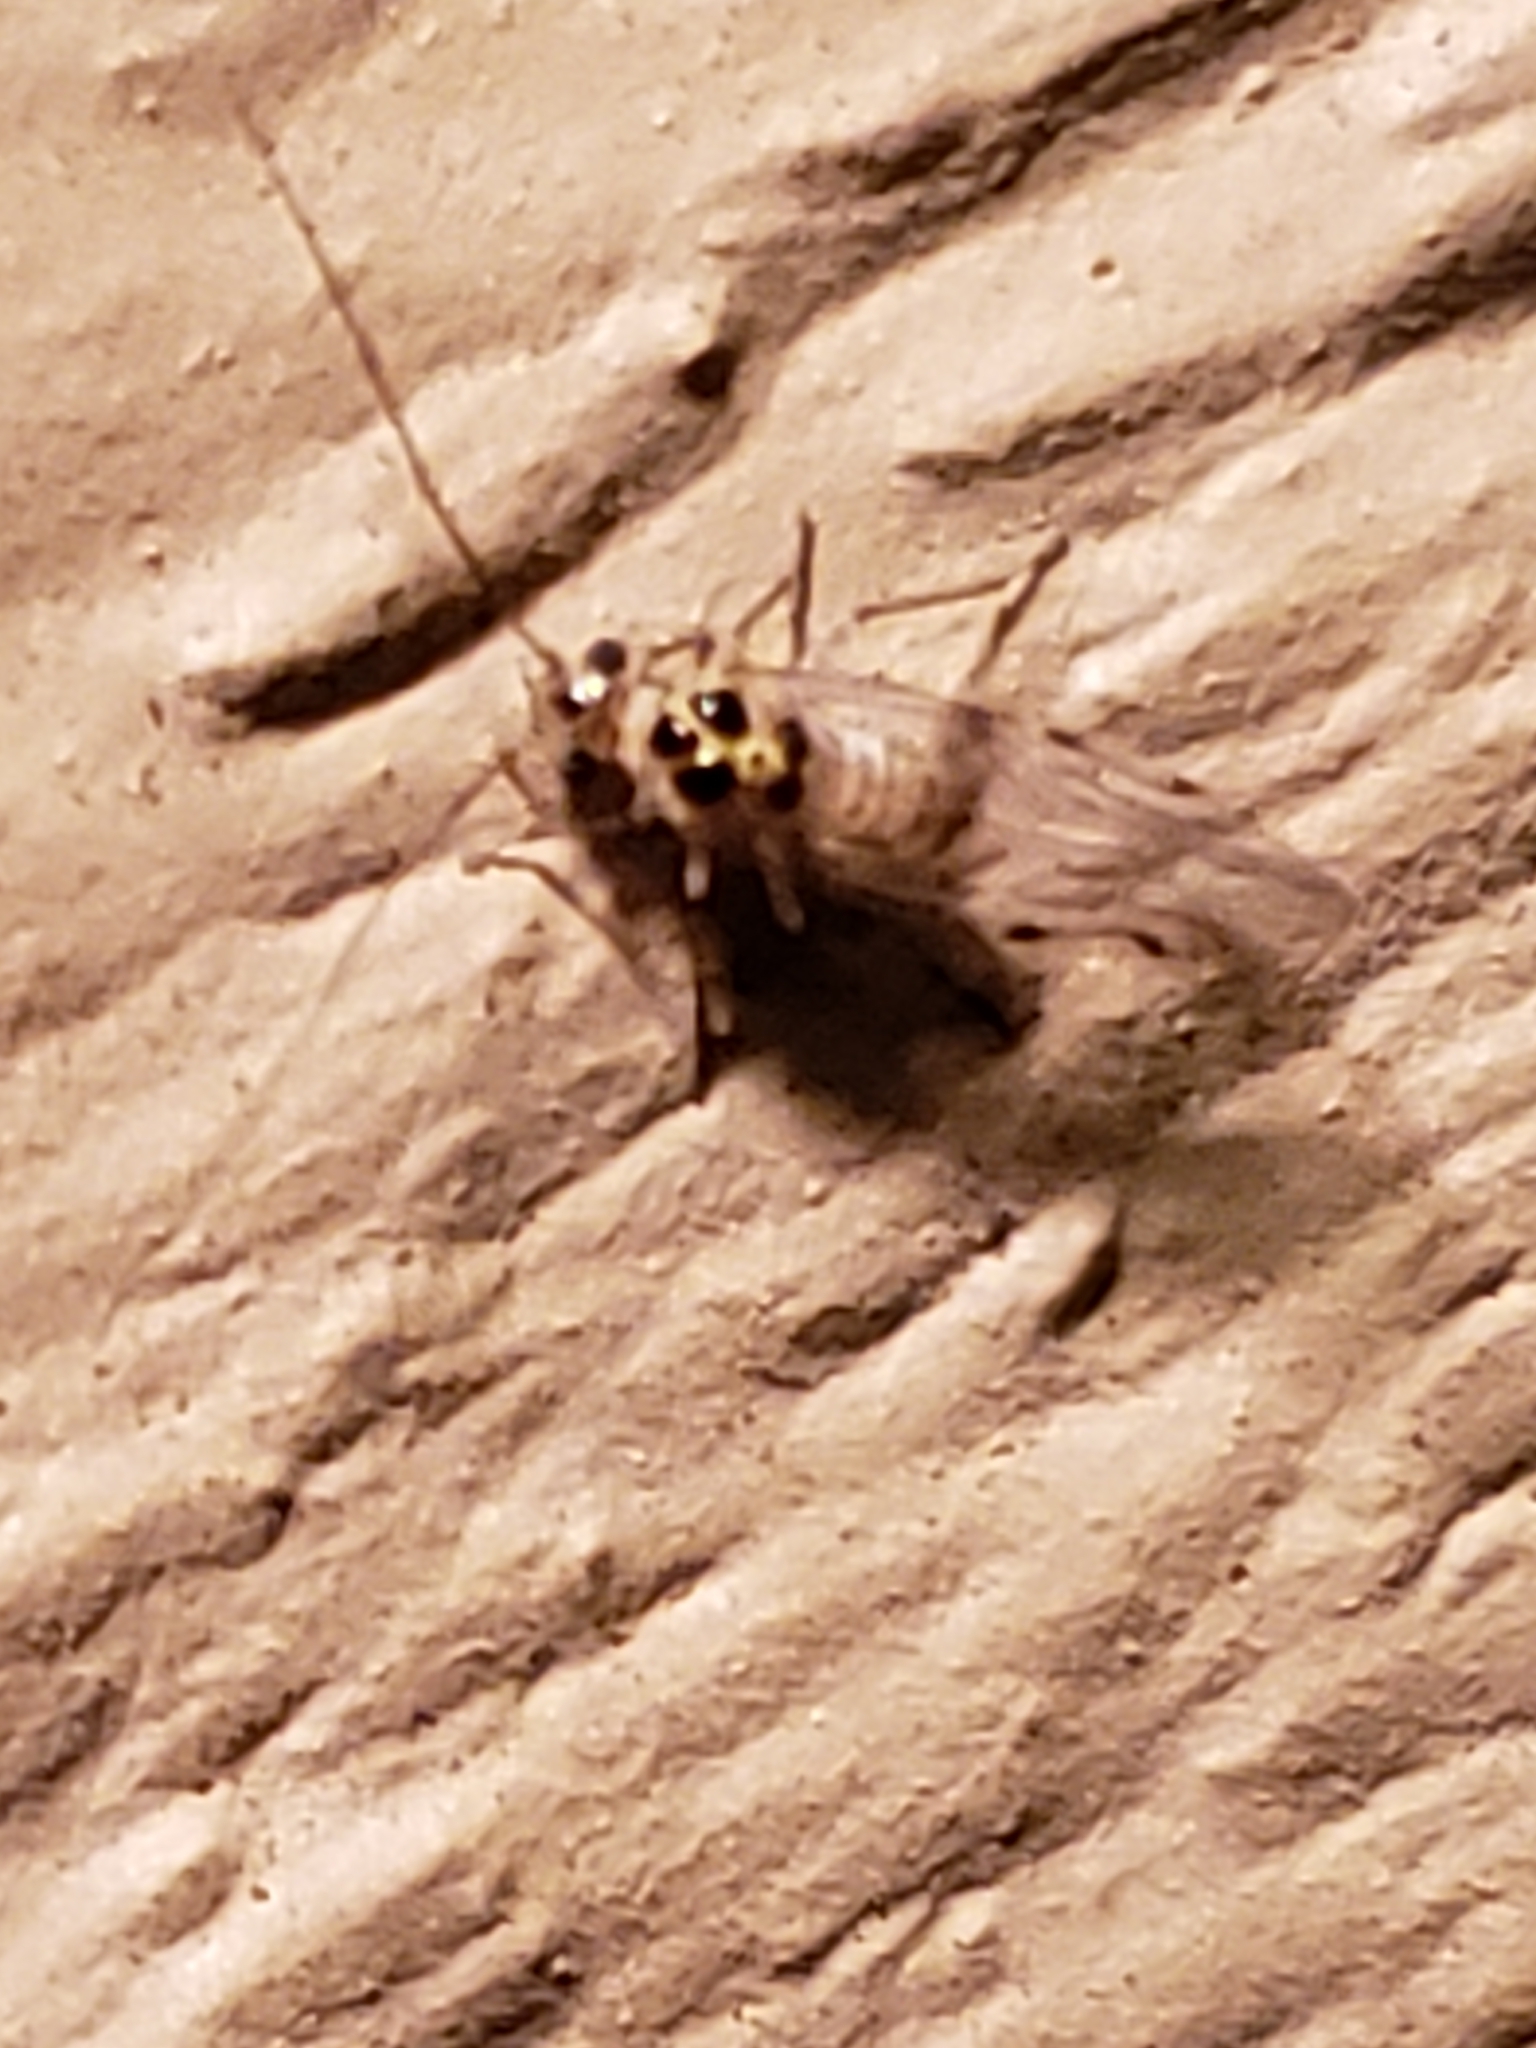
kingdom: Animalia
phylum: Arthropoda
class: Insecta
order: Psocodea
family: Dasydemellidae
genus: Teliapsocus
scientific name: Teliapsocus conterminus
